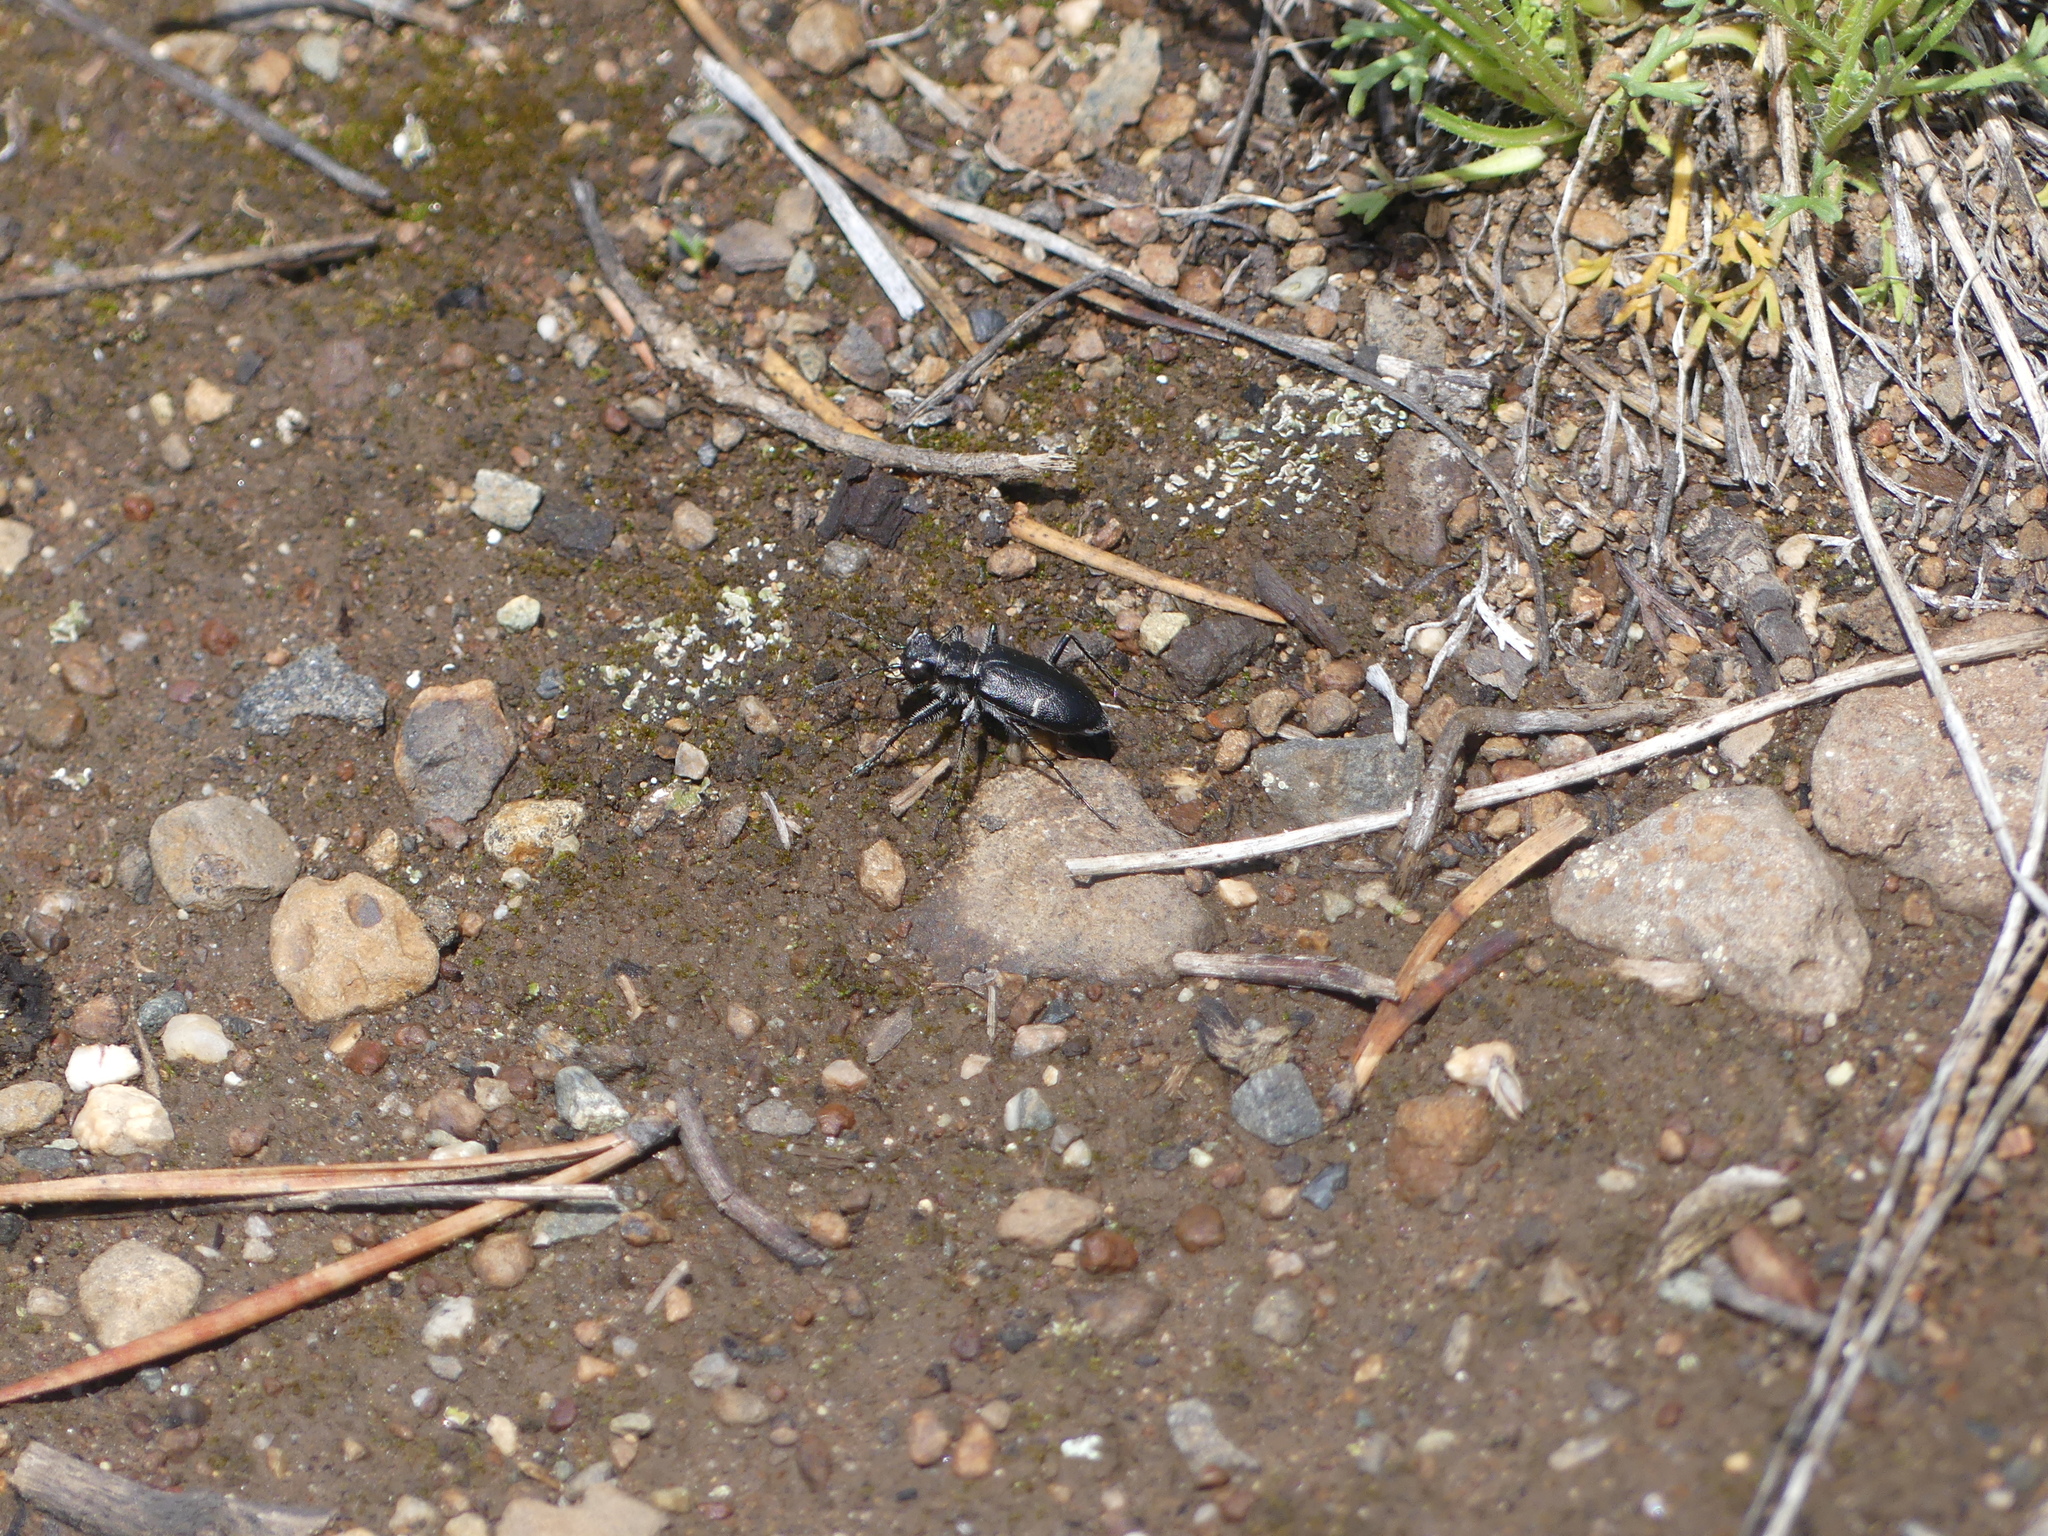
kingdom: Animalia
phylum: Arthropoda
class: Insecta
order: Coleoptera
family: Carabidae
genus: Cicindela
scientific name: Cicindela longilabris
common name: Boreal long-lipped tiger beetle
